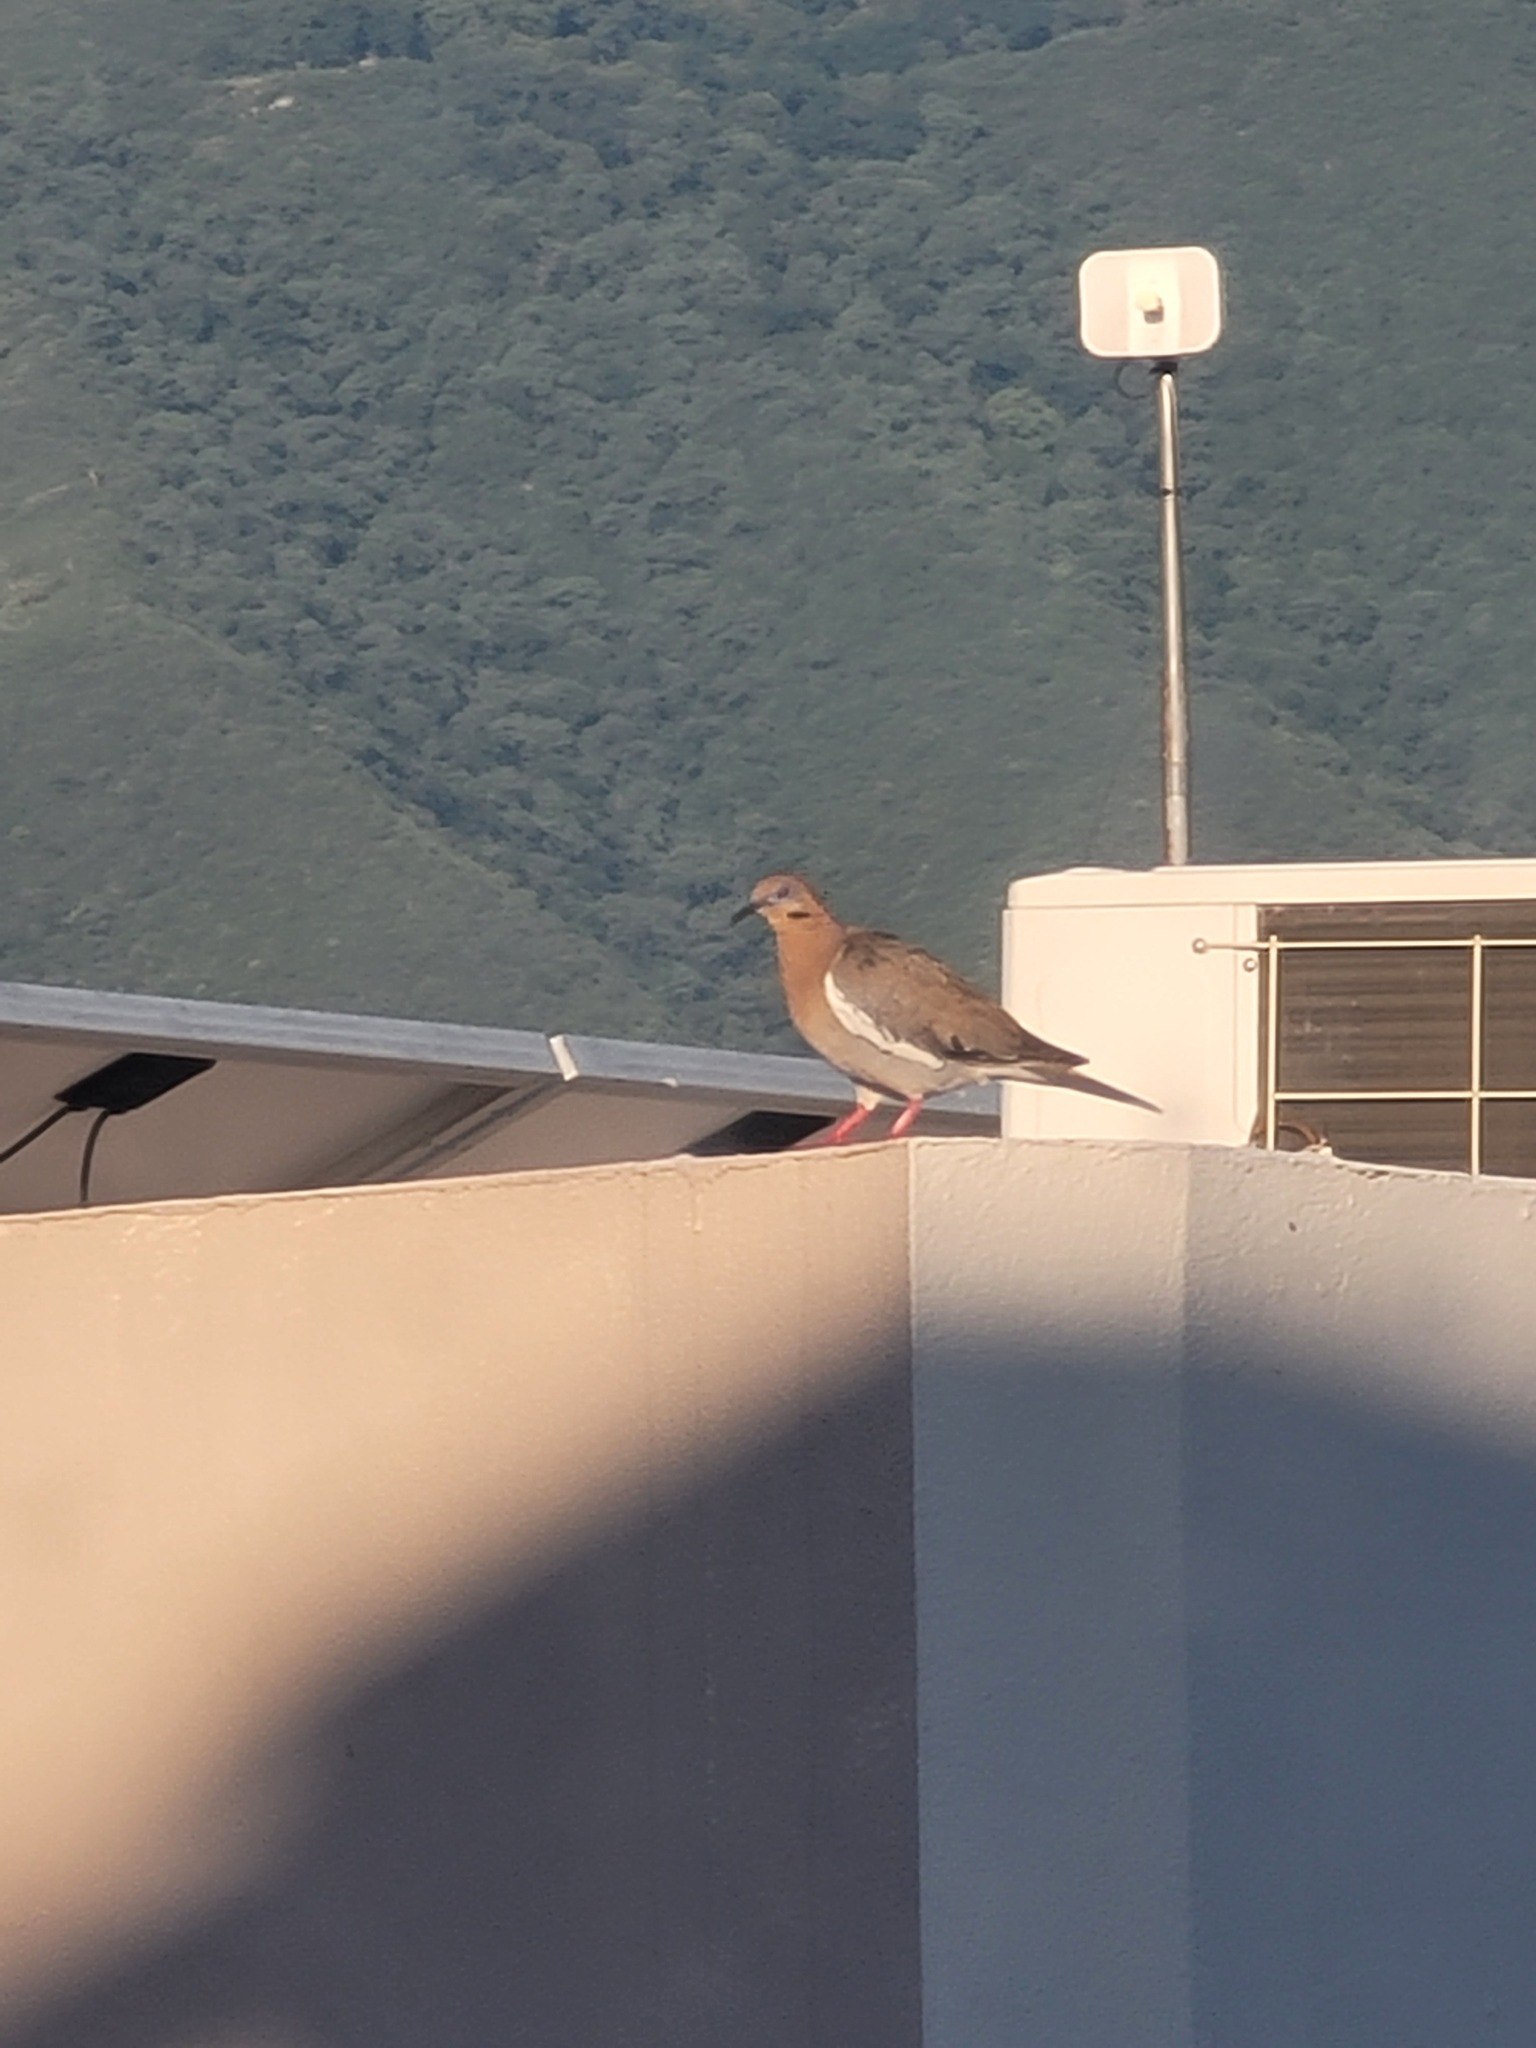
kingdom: Animalia
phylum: Chordata
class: Aves
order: Columbiformes
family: Columbidae
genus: Zenaida
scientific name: Zenaida asiatica
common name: White-winged dove
